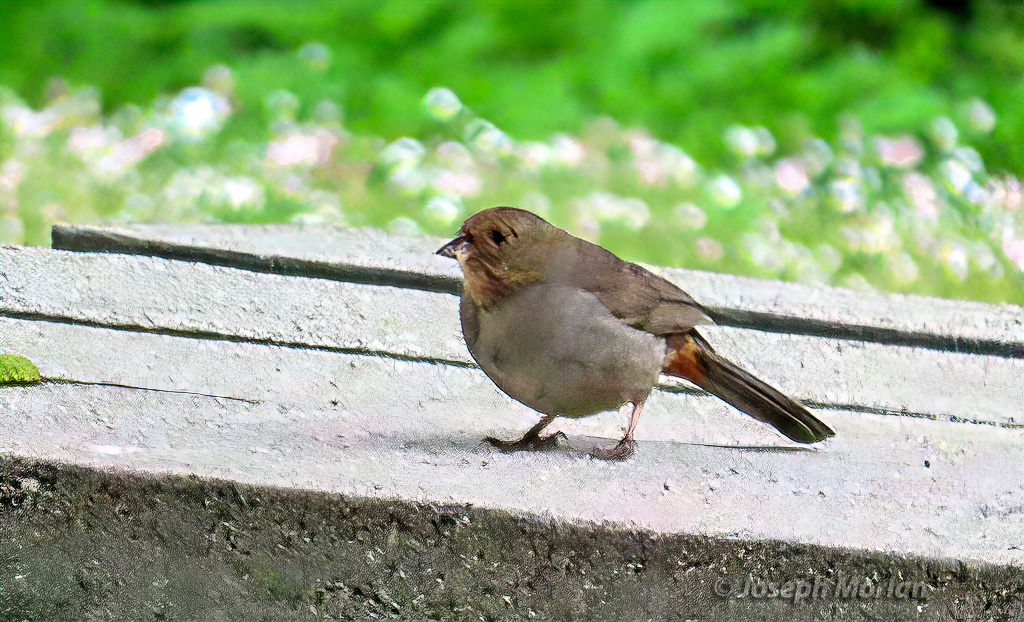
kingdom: Animalia
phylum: Chordata
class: Aves
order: Passeriformes
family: Passerellidae
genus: Melozone
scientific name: Melozone crissalis
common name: California towhee
